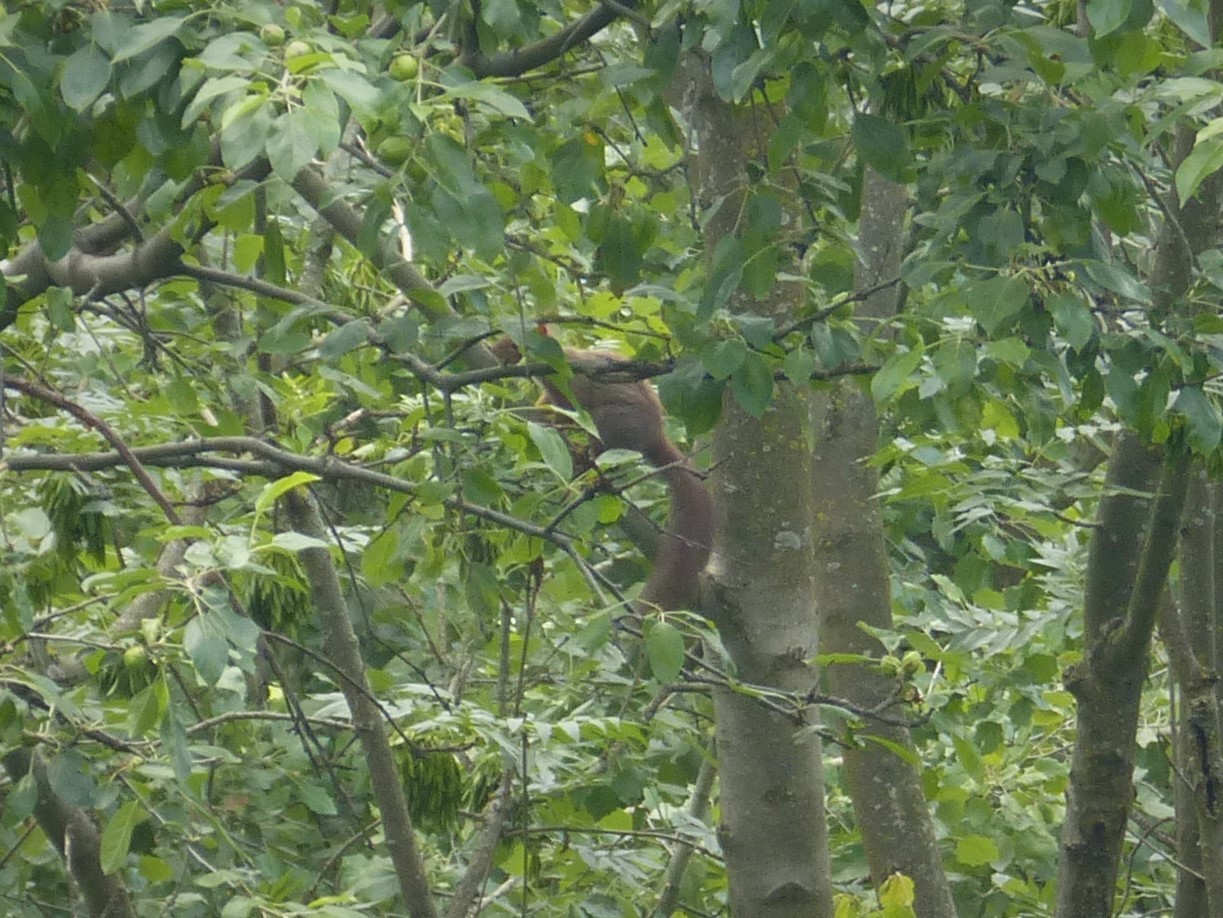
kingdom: Animalia
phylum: Chordata
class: Mammalia
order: Rodentia
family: Sciuridae
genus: Sciurus
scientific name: Sciurus vulgaris
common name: Eurasian red squirrel
